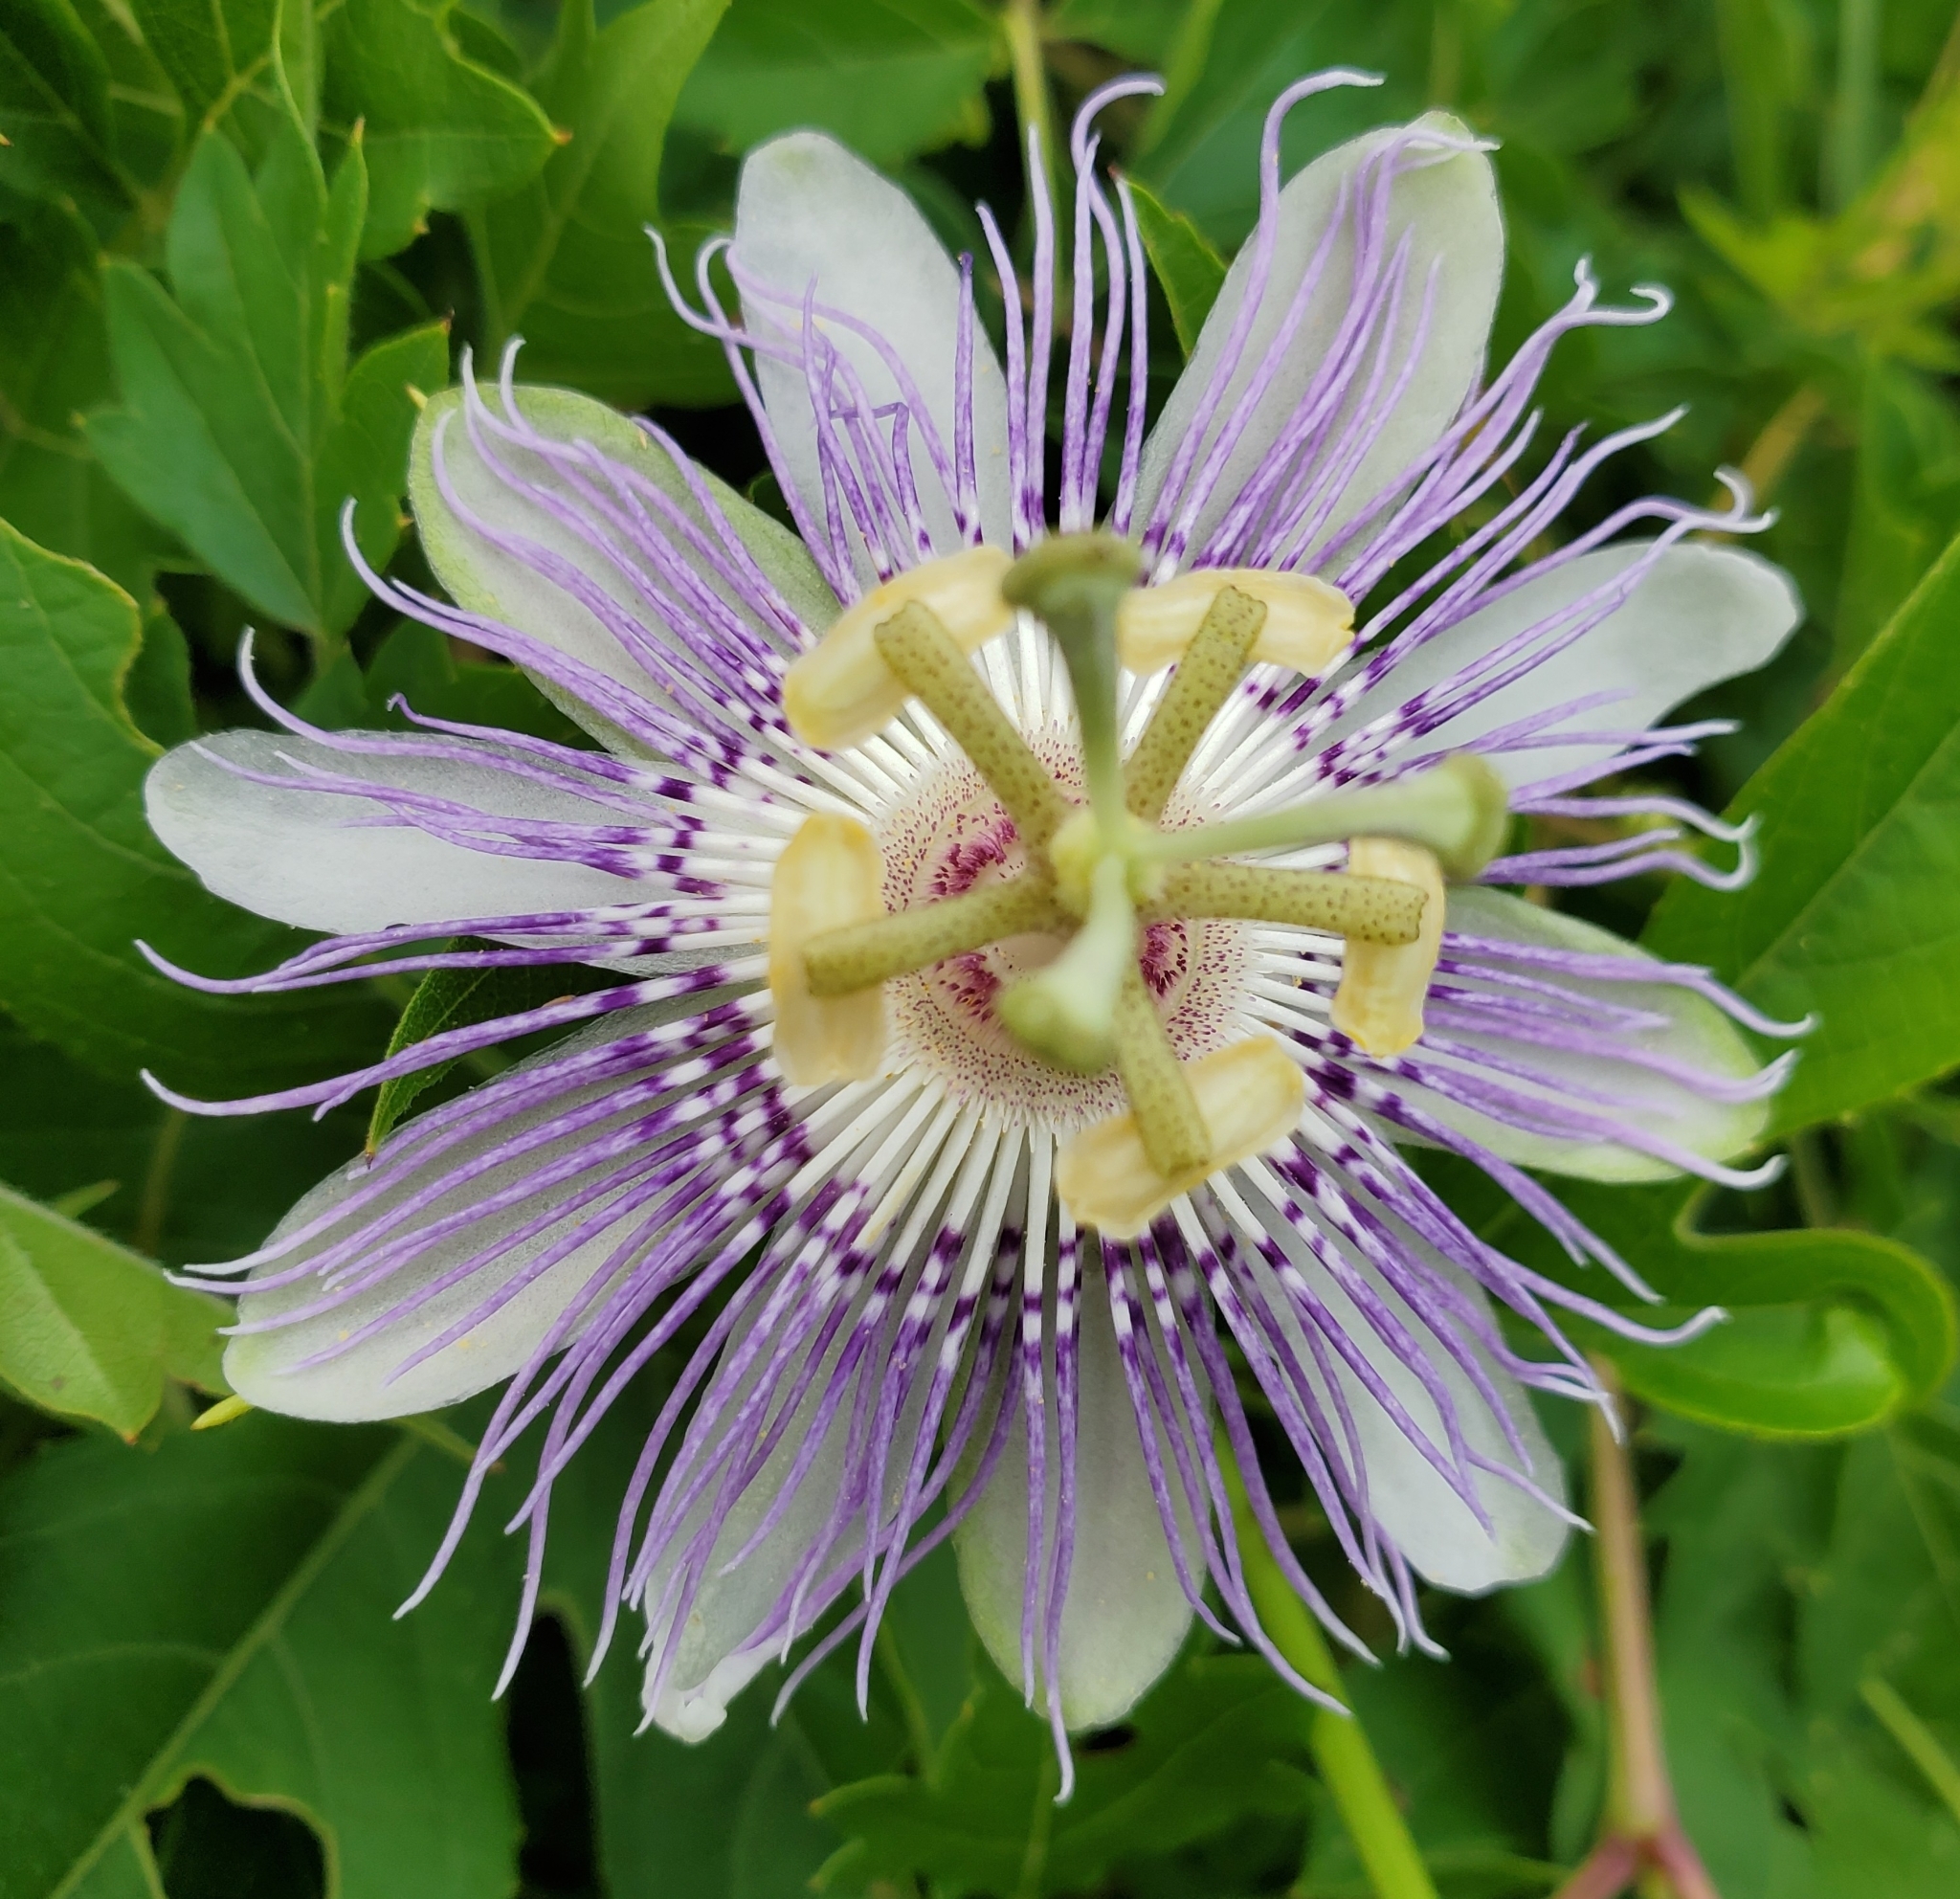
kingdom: Plantae
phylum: Tracheophyta
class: Magnoliopsida
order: Malpighiales
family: Passifloraceae
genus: Passiflora
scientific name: Passiflora incarnata
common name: Apricot-vine
